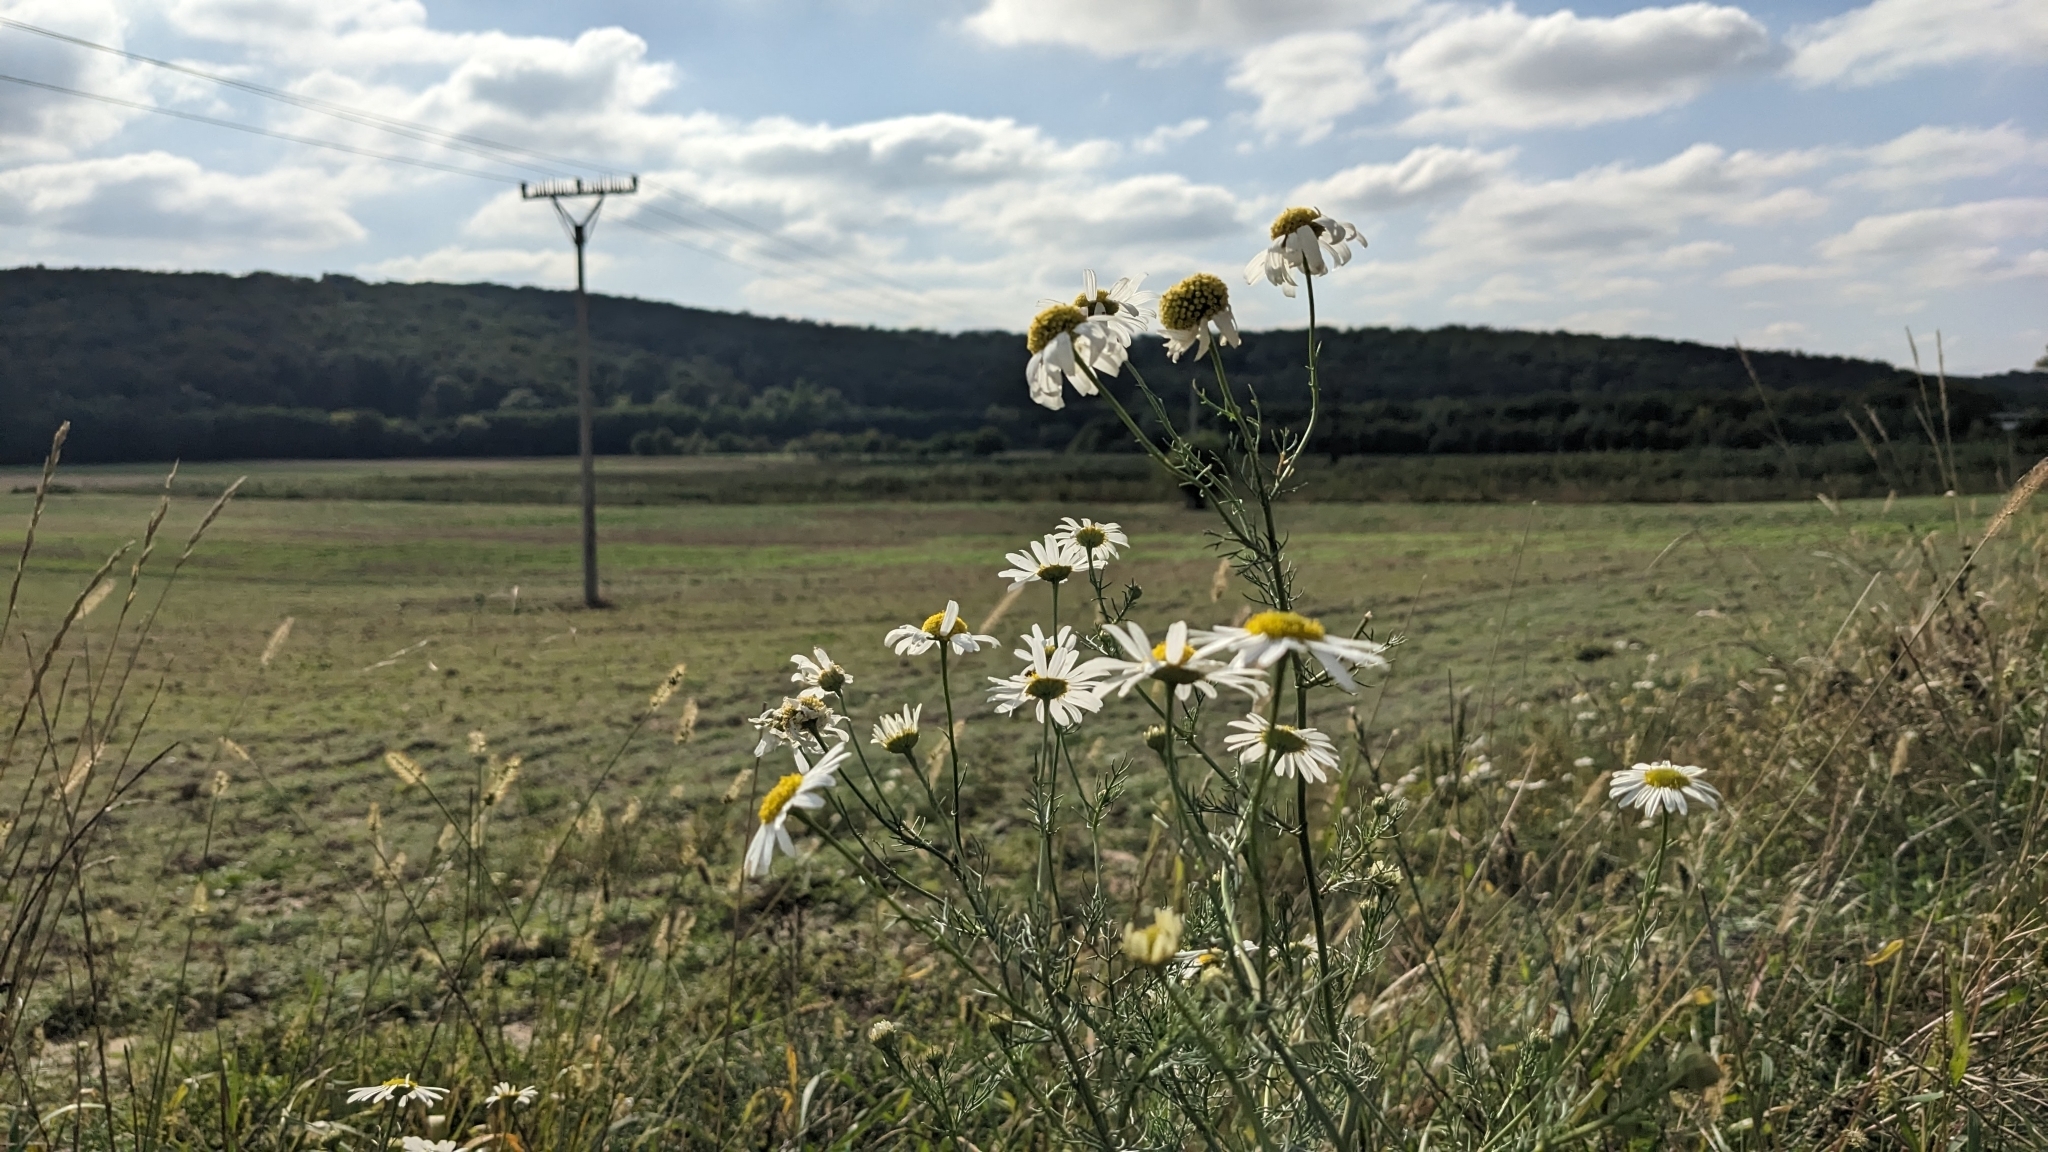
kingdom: Plantae
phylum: Tracheophyta
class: Magnoliopsida
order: Asterales
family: Asteraceae
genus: Tripleurospermum
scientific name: Tripleurospermum inodorum
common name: Scentless mayweed
